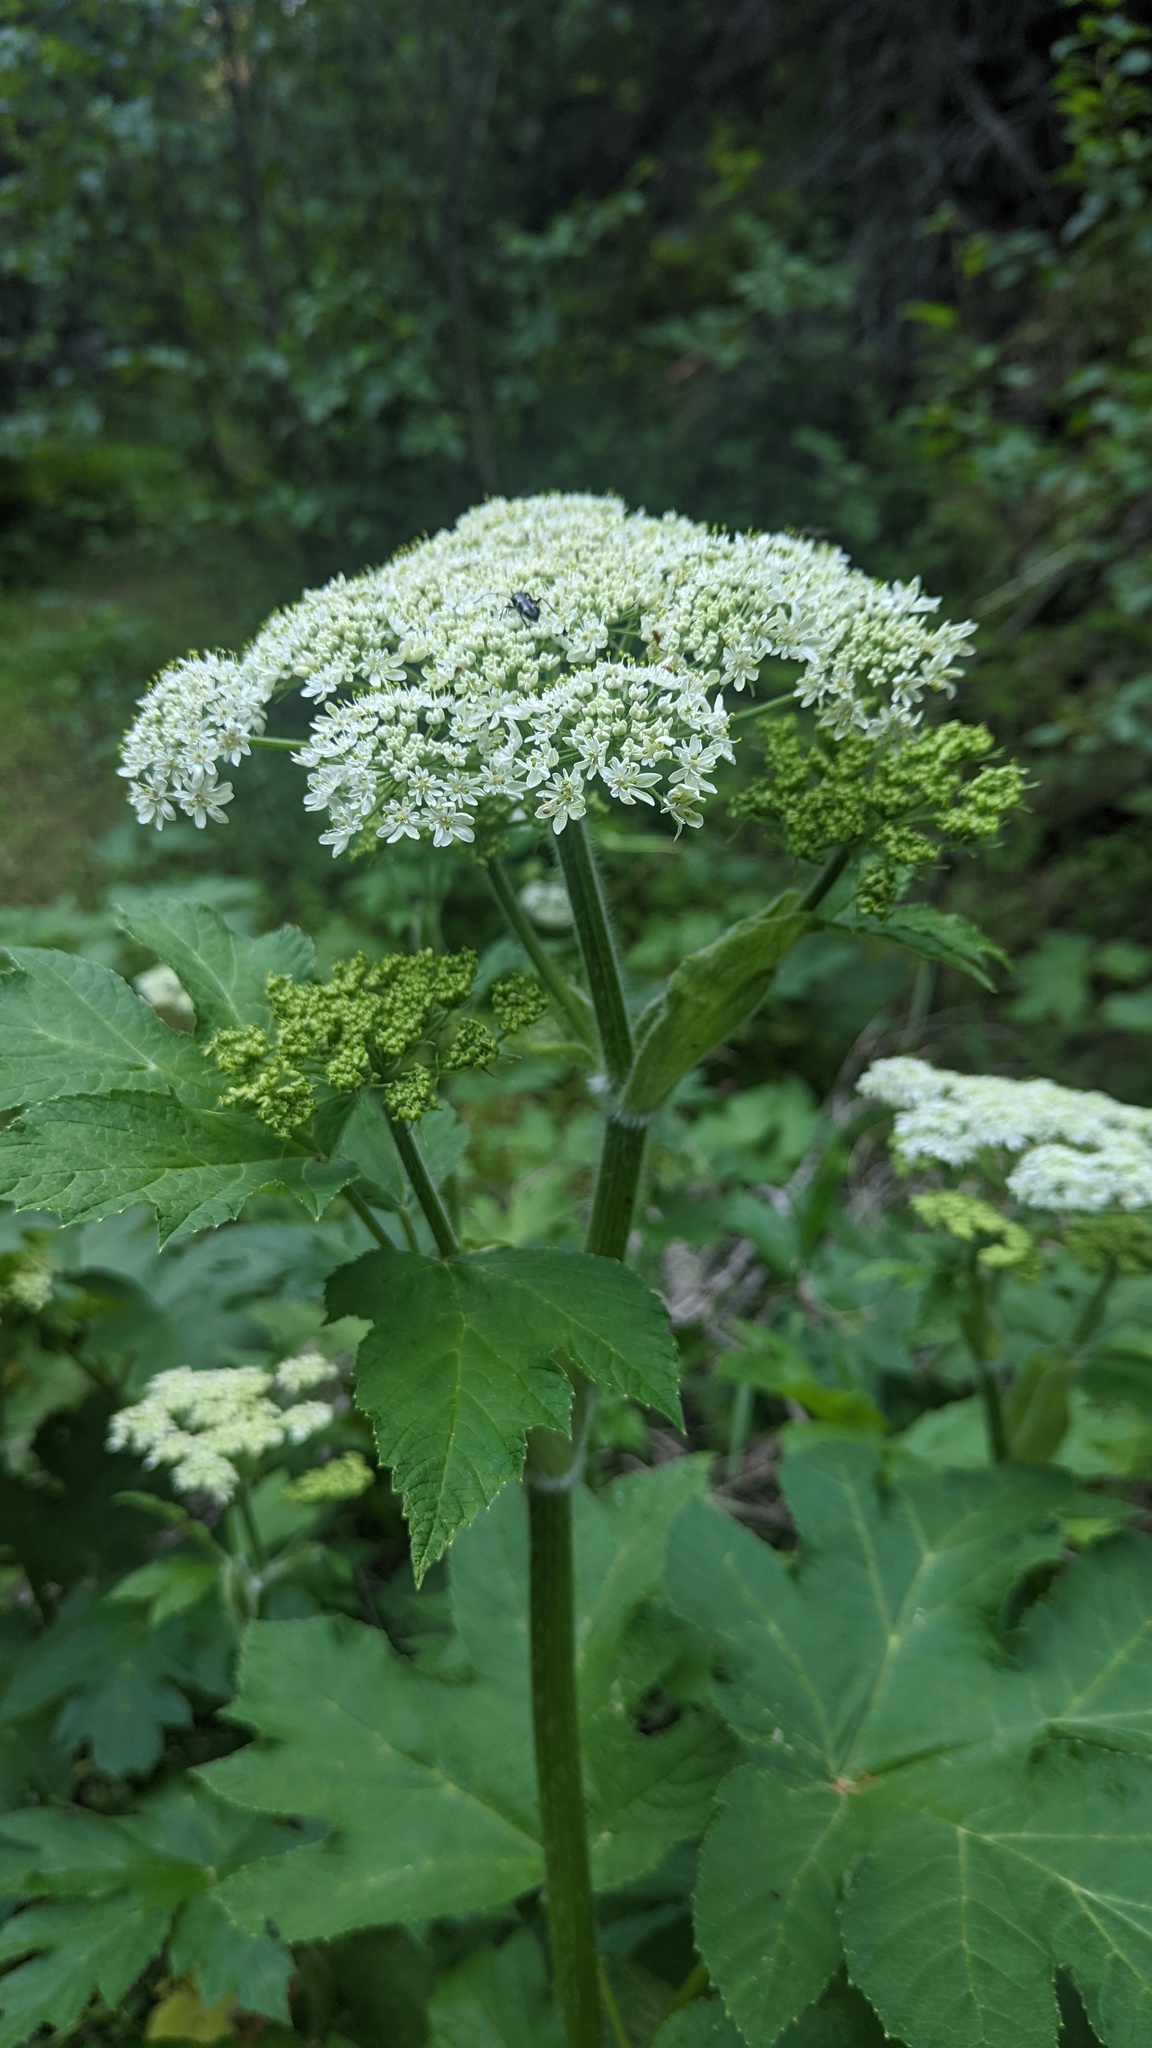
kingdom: Plantae
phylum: Tracheophyta
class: Magnoliopsida
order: Apiales
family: Apiaceae
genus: Heracleum
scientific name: Heracleum maximum
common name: American cow parsnip
